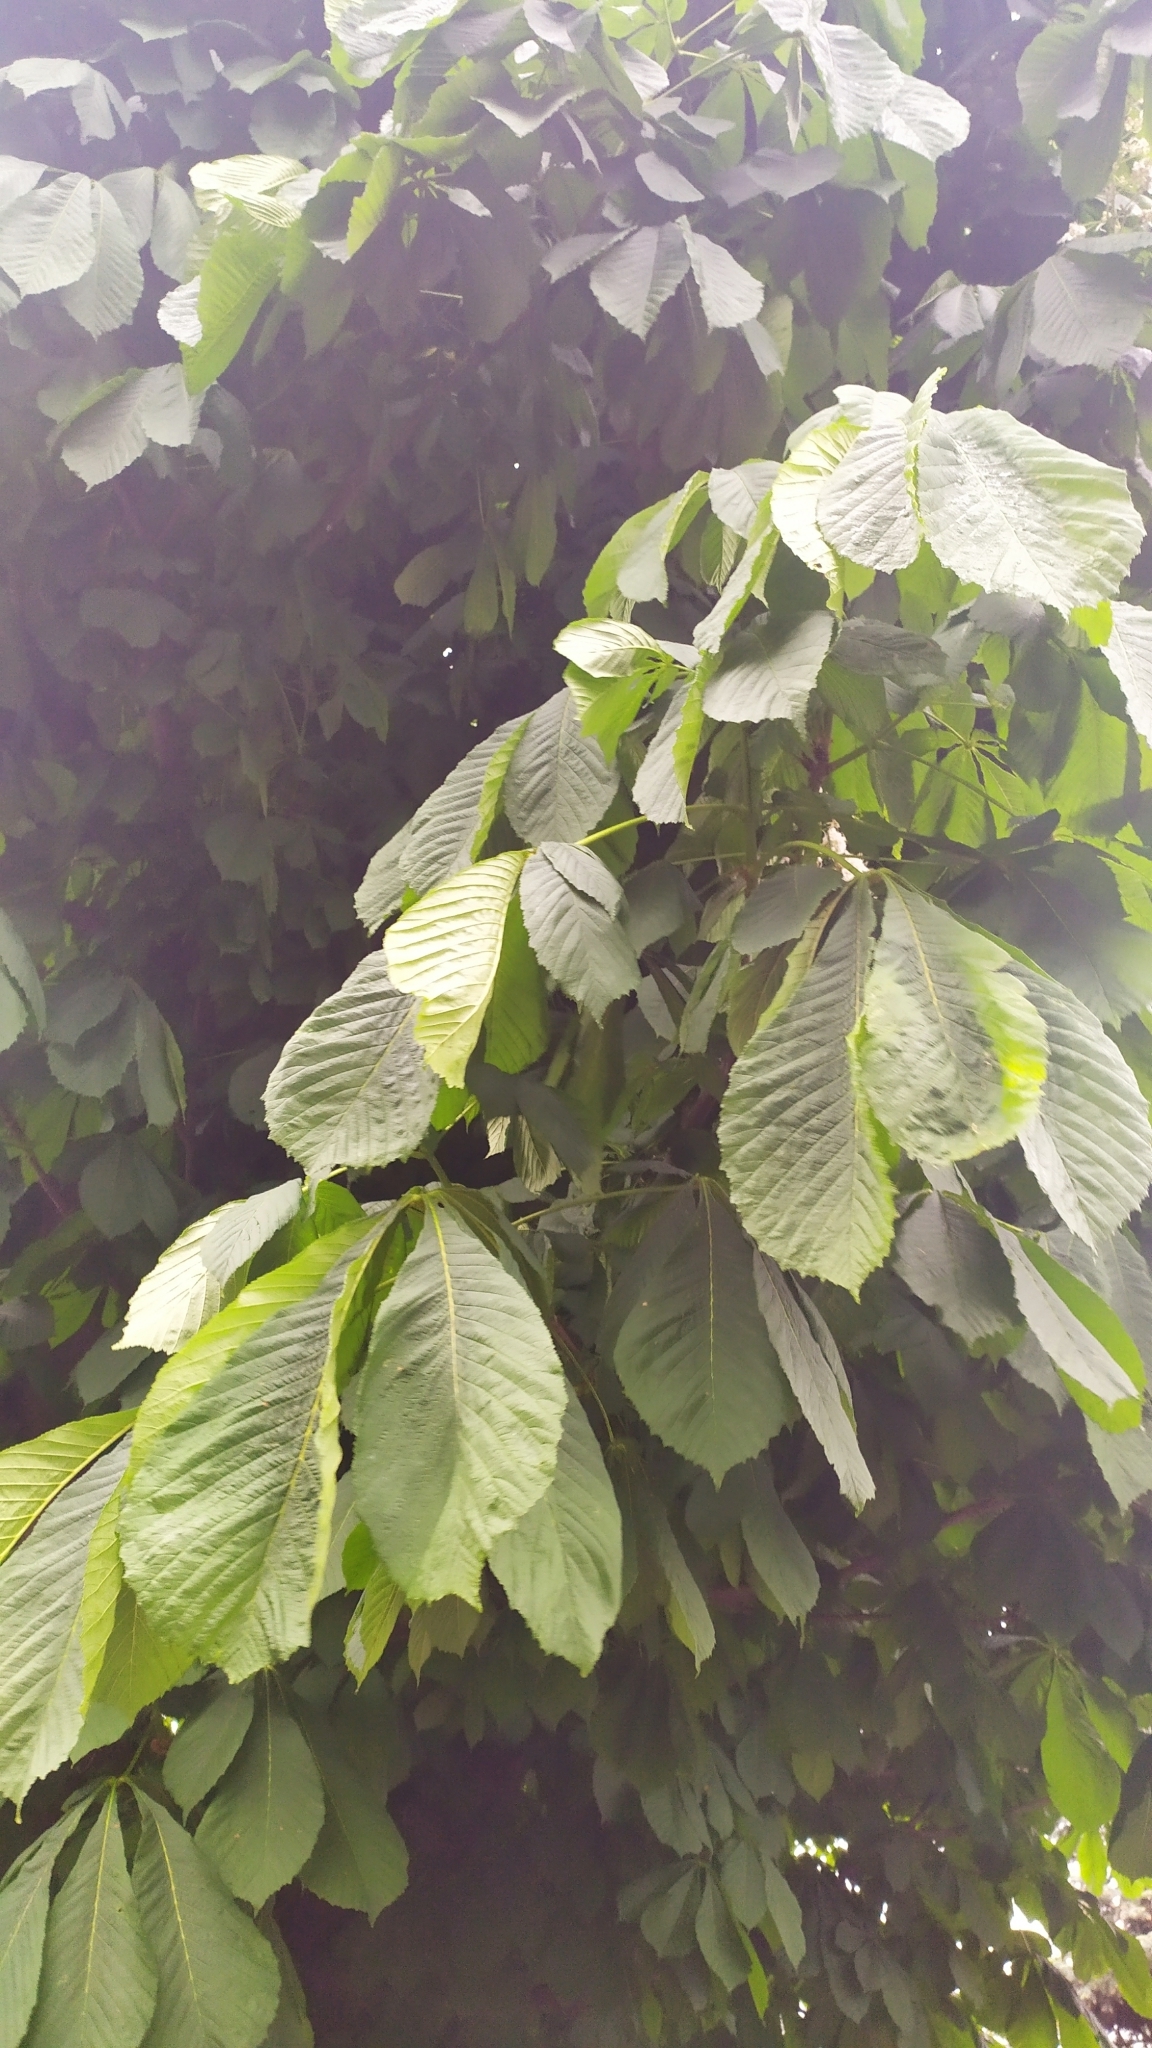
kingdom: Plantae
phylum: Tracheophyta
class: Magnoliopsida
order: Sapindales
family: Sapindaceae
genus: Aesculus
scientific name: Aesculus hippocastanum
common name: Horse-chestnut
